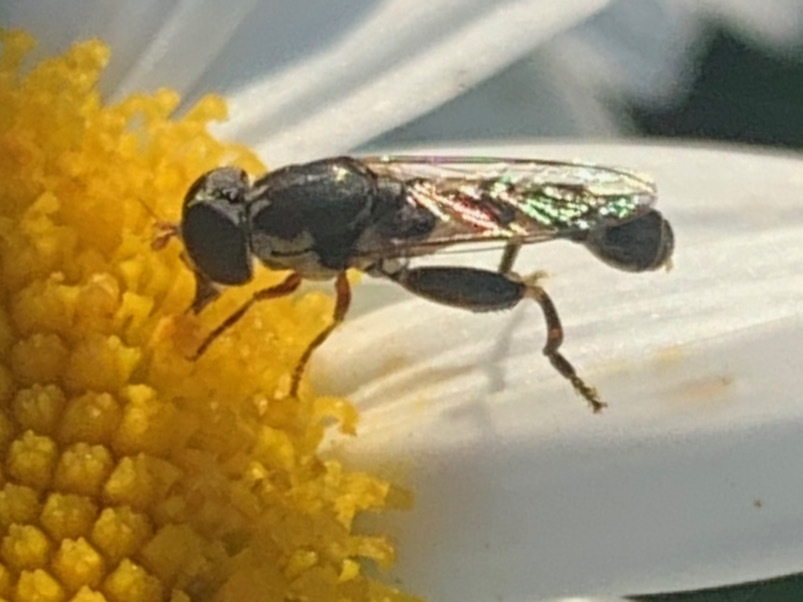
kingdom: Animalia
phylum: Arthropoda
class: Insecta
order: Diptera
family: Syrphidae
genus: Syritta
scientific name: Syritta pipiens
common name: Hover fly
